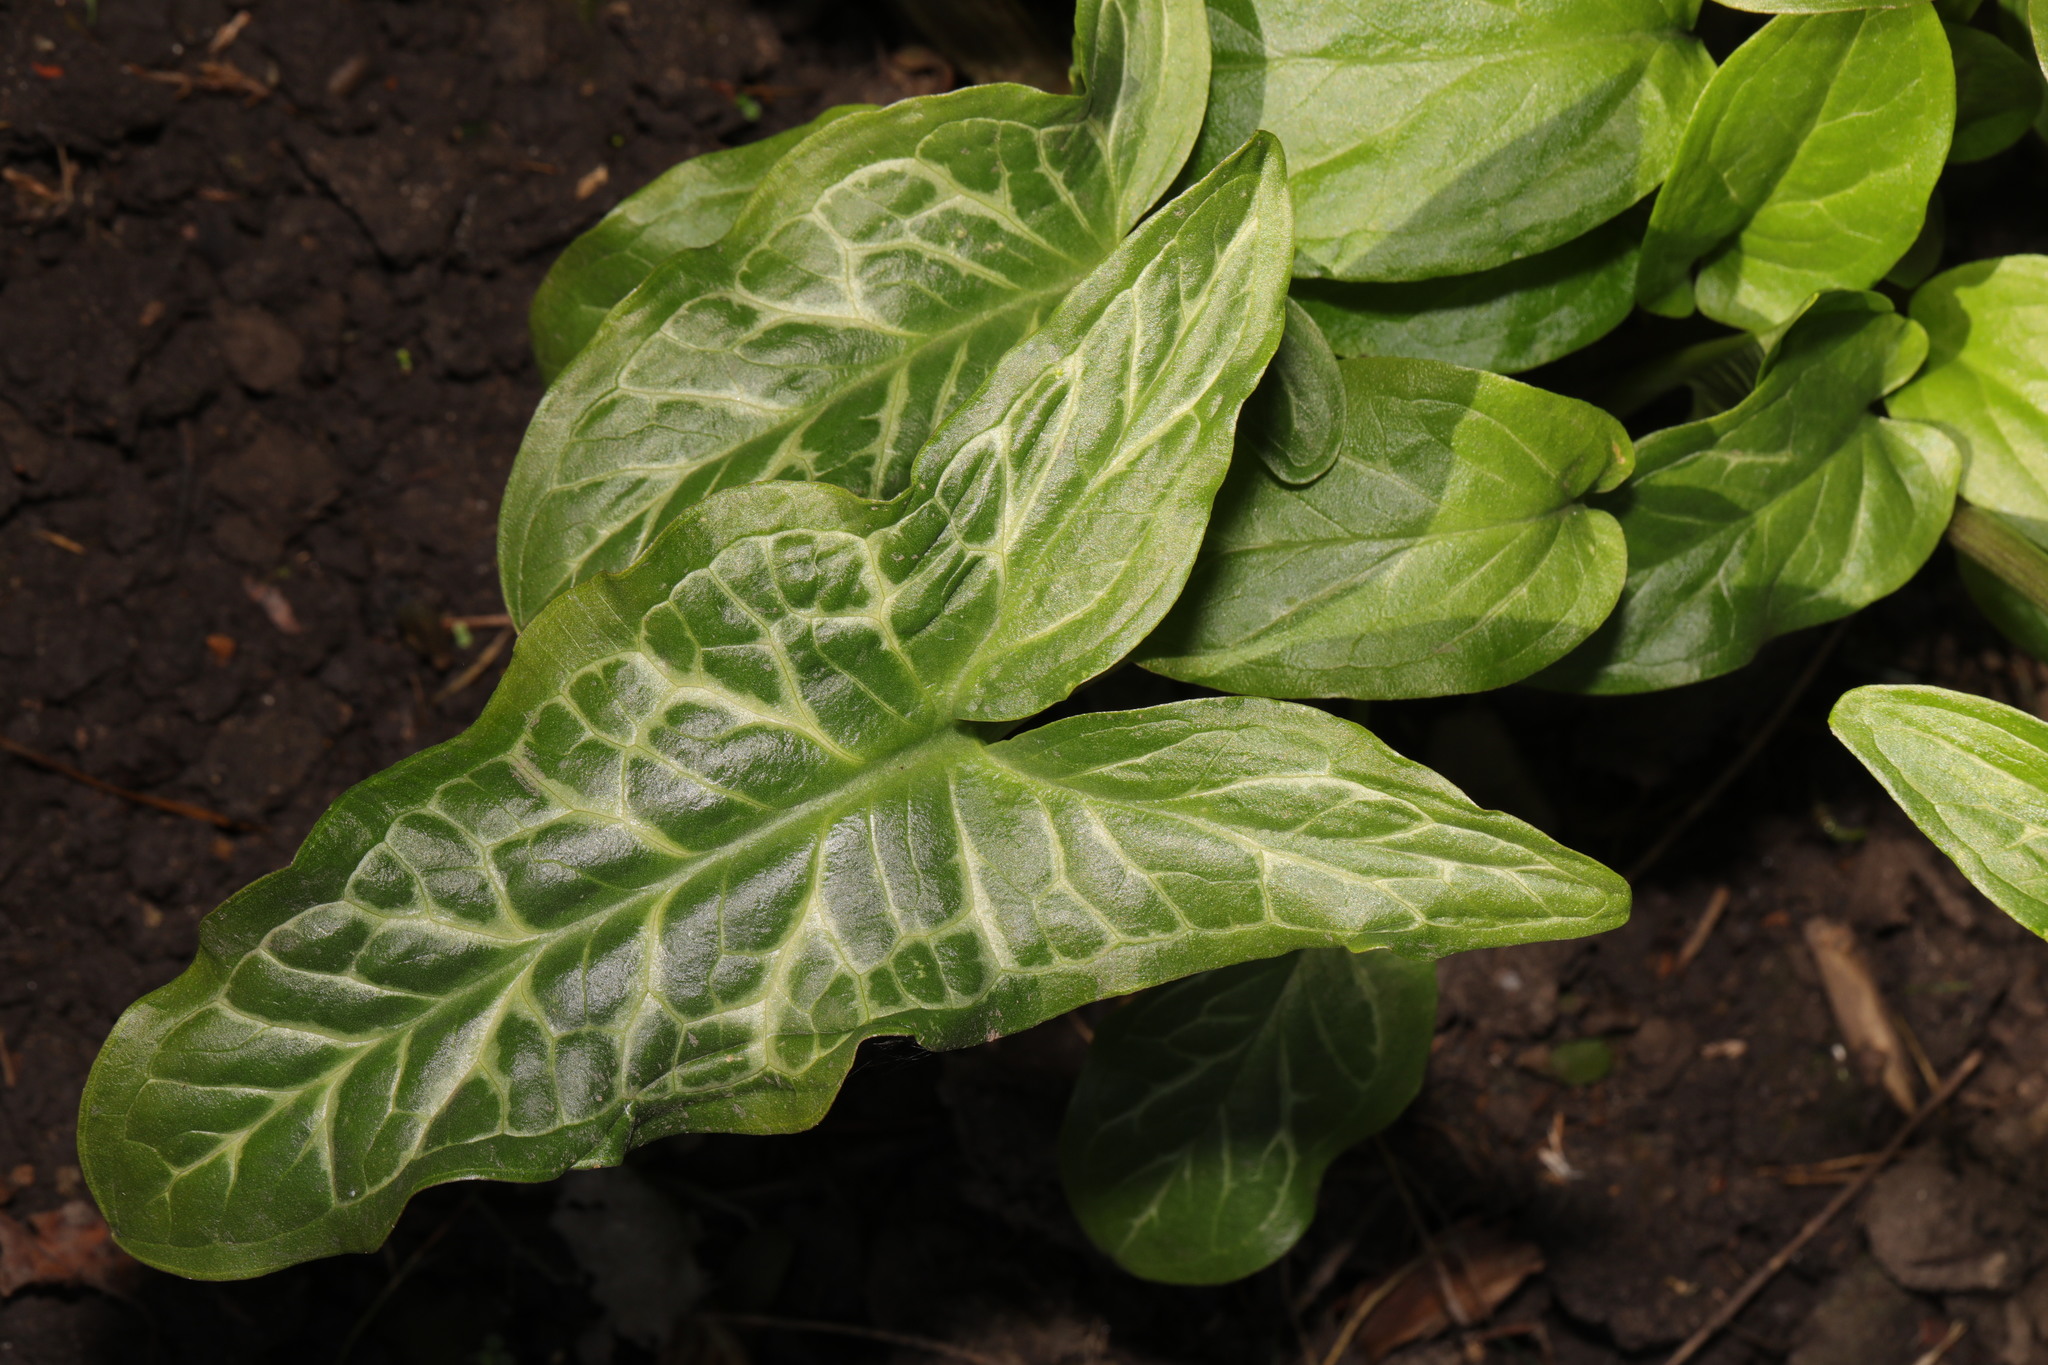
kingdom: Plantae
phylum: Tracheophyta
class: Liliopsida
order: Alismatales
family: Araceae
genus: Arum
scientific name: Arum italicum
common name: Italian lords-and-ladies
